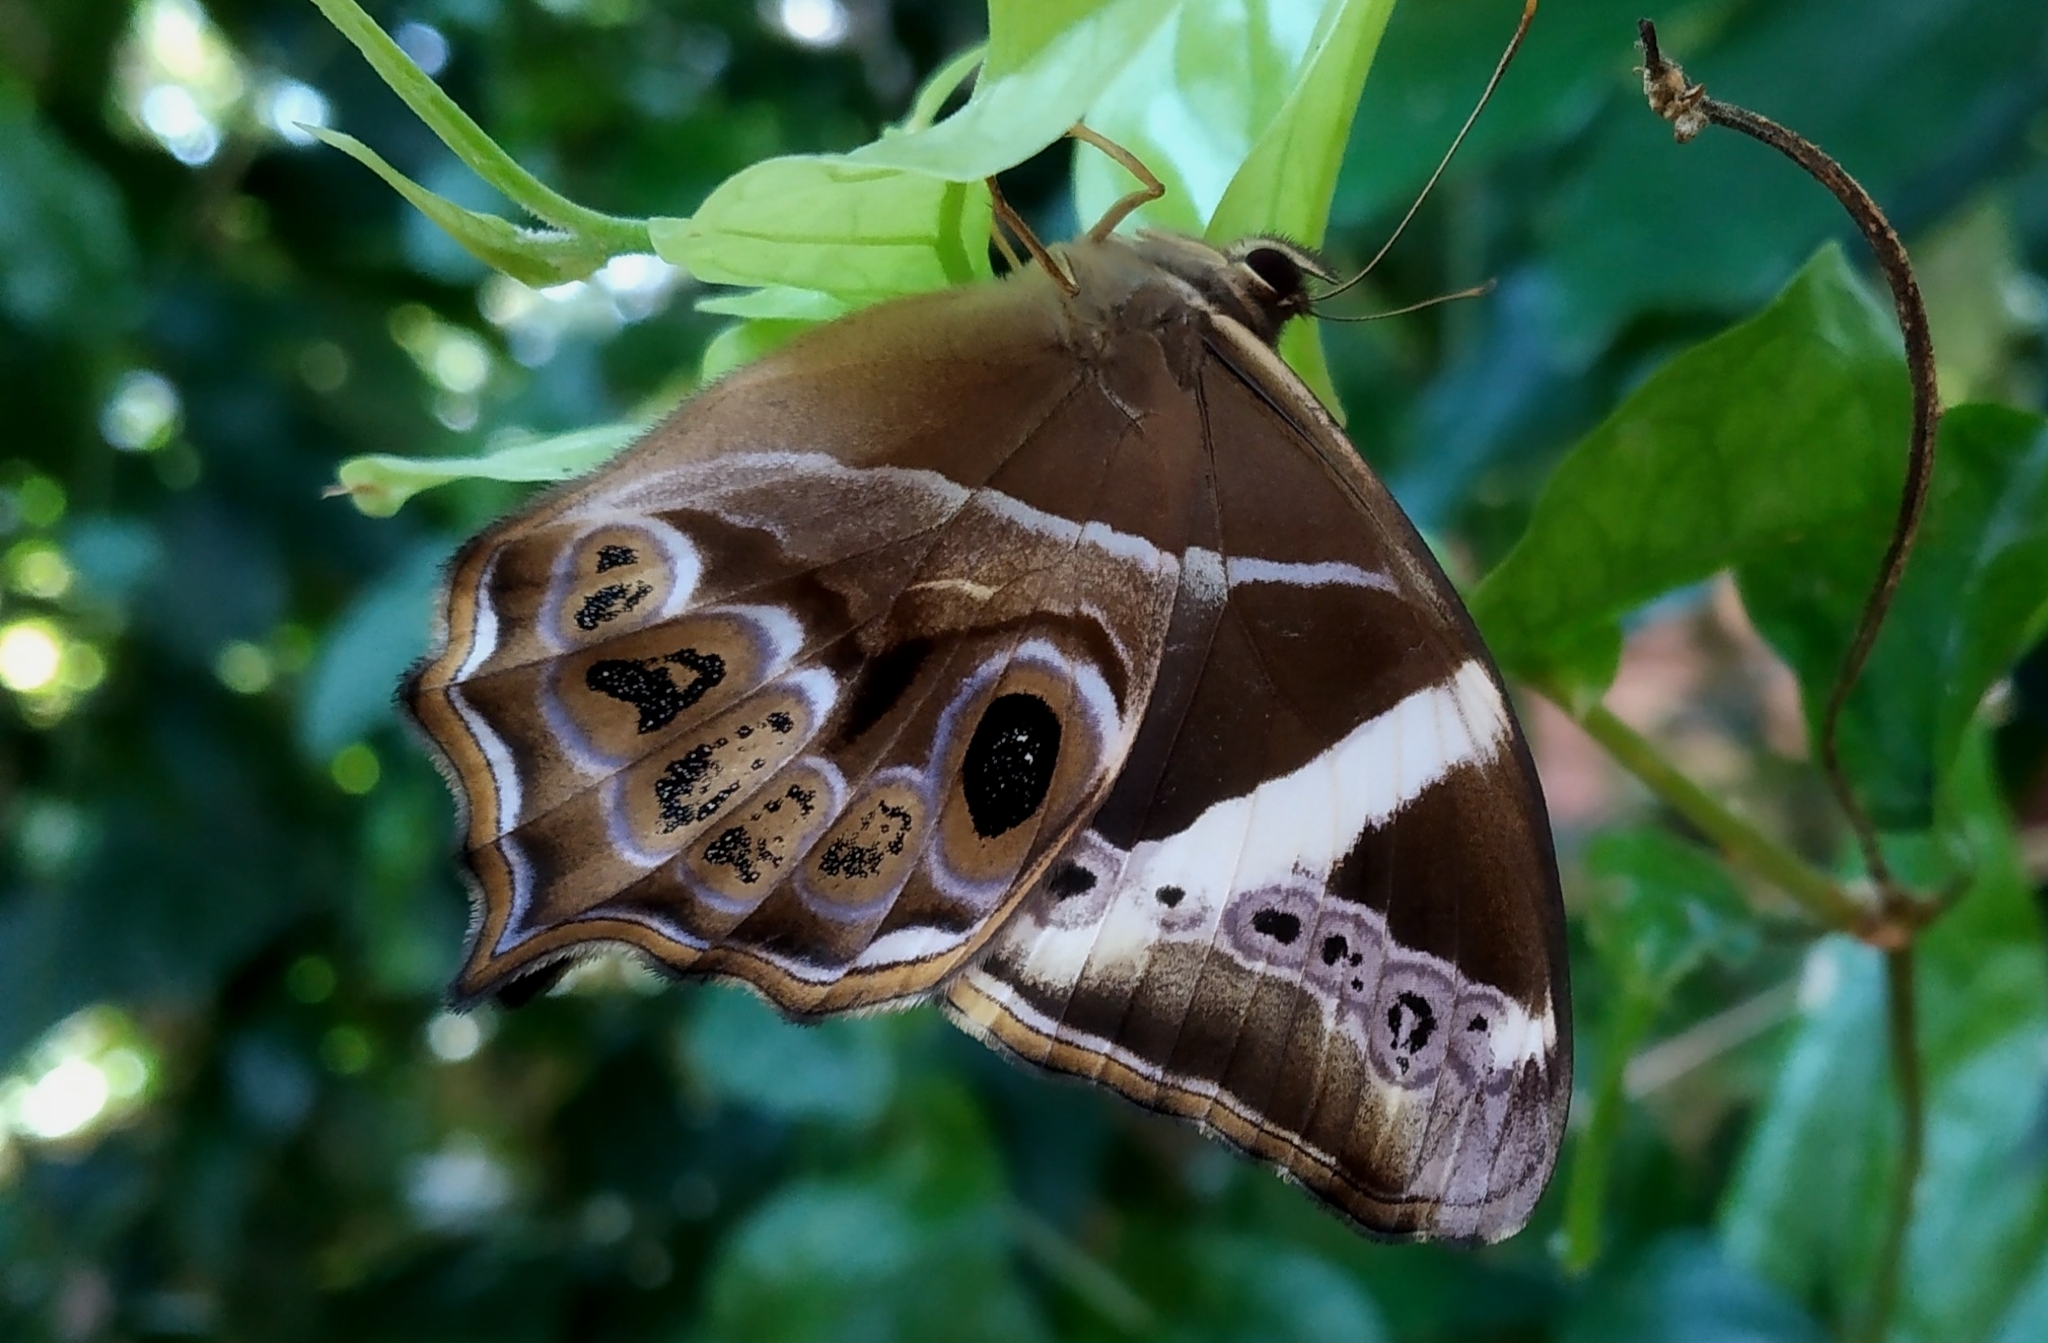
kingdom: Animalia
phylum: Arthropoda
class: Insecta
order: Lepidoptera
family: Nymphalidae
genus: Lethe
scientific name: Lethe europa
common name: Bamboo treebrown
